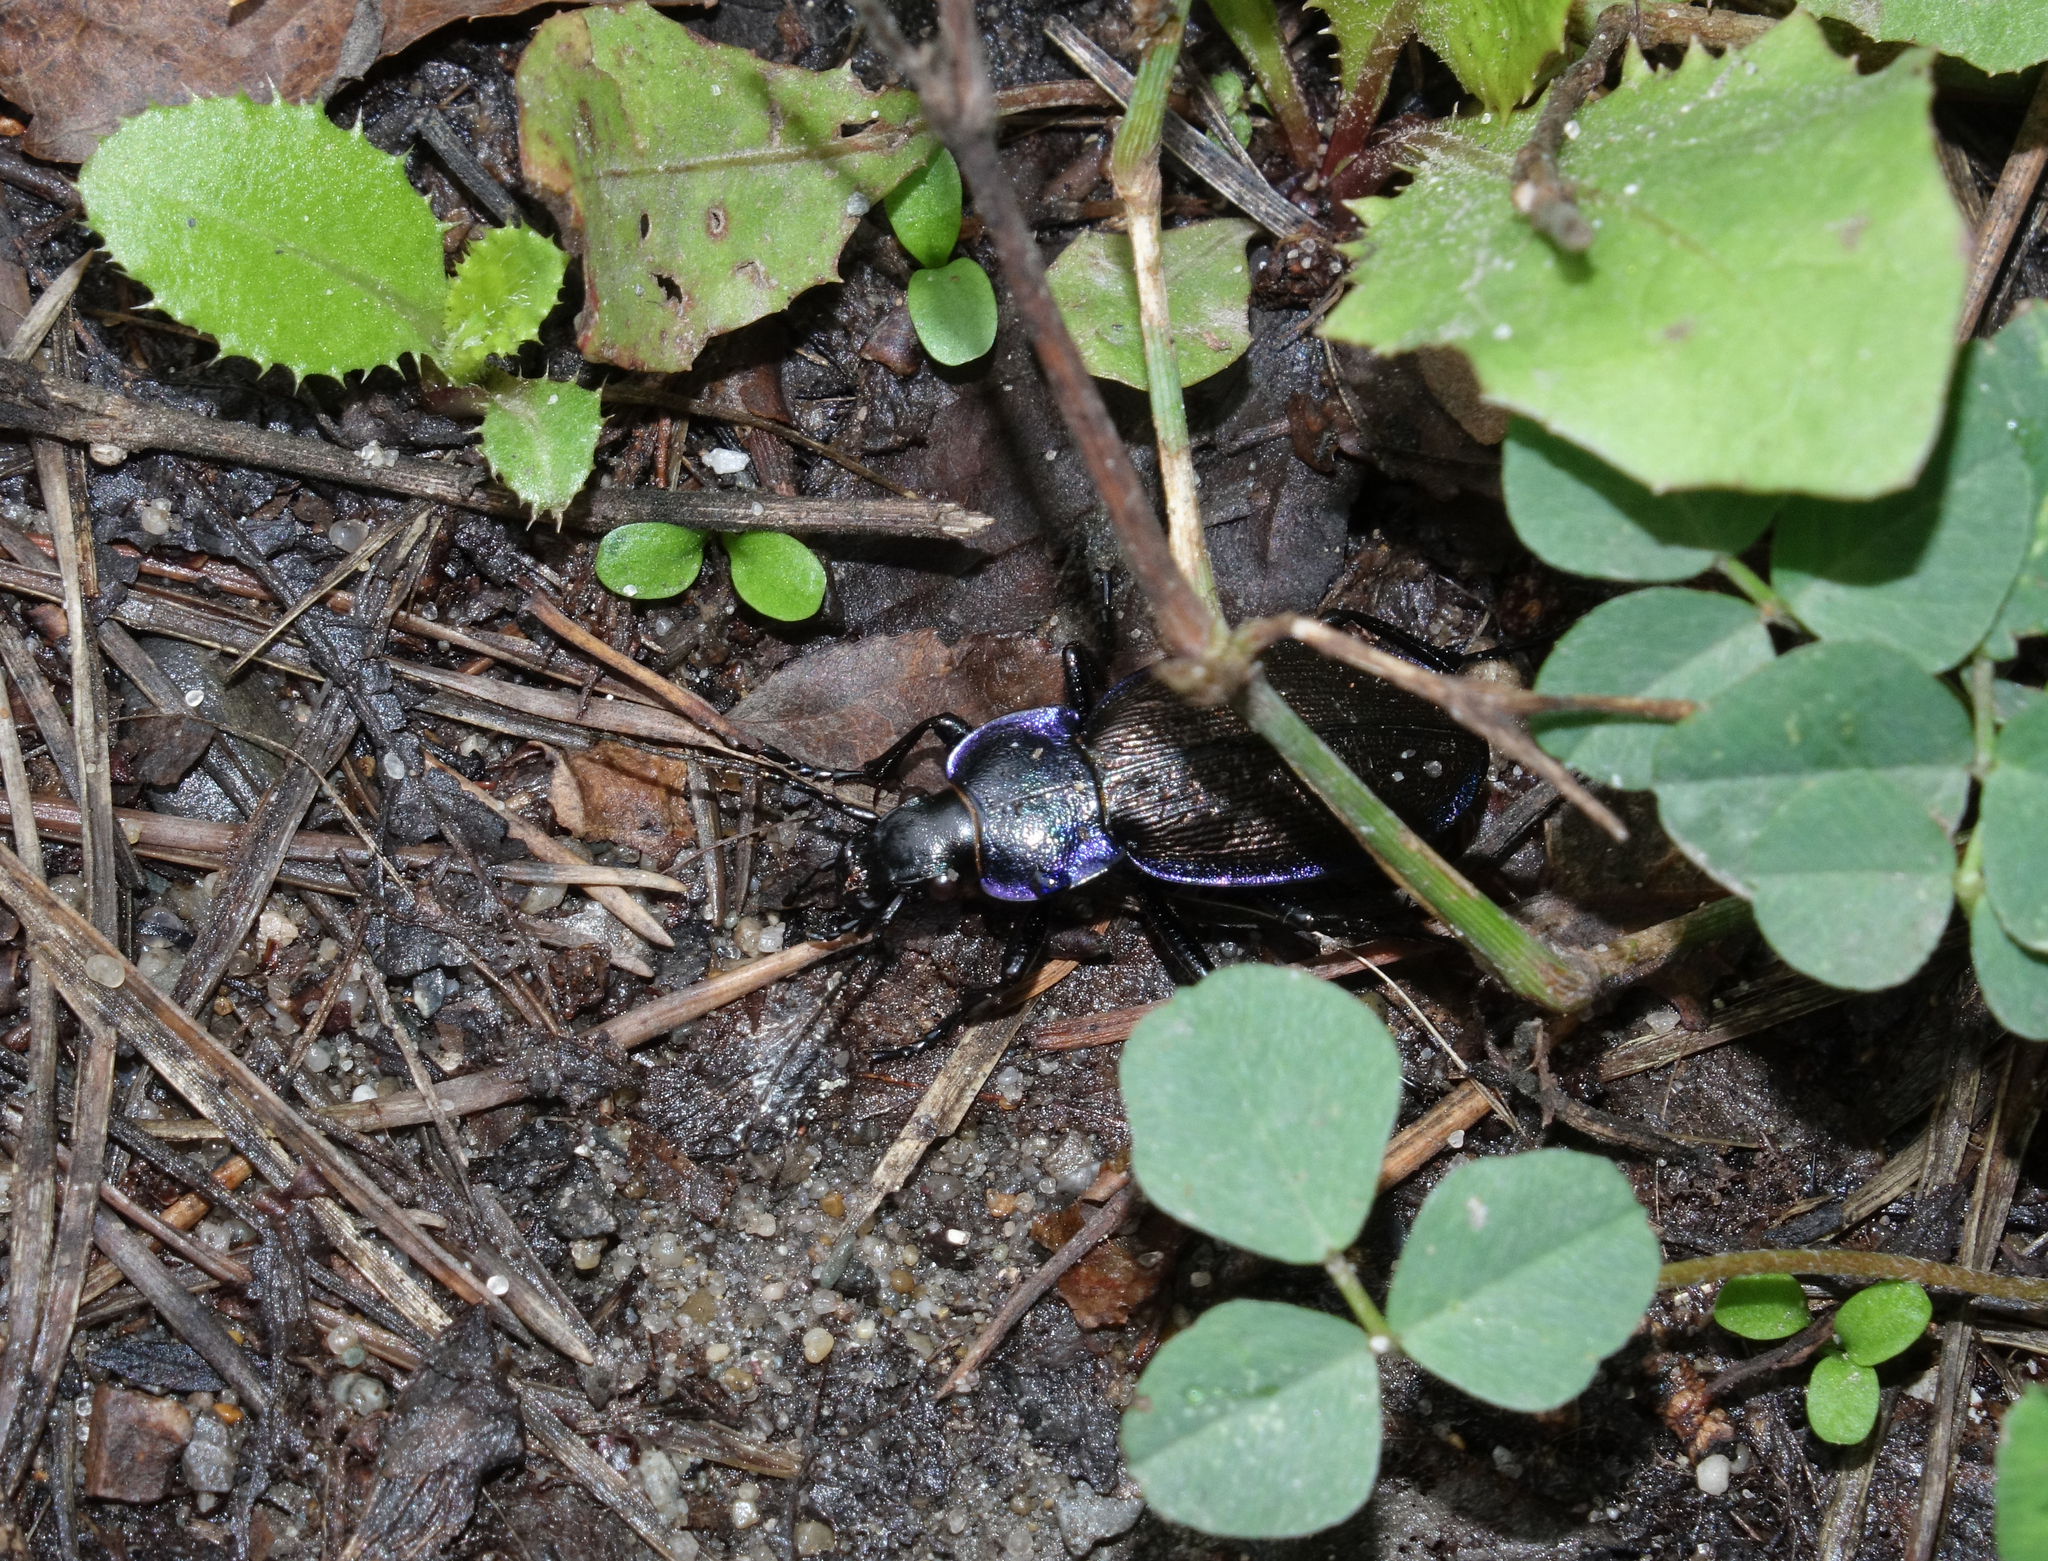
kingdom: Animalia
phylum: Arthropoda
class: Insecta
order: Coleoptera
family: Carabidae
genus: Carabus
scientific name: Carabus regalis
